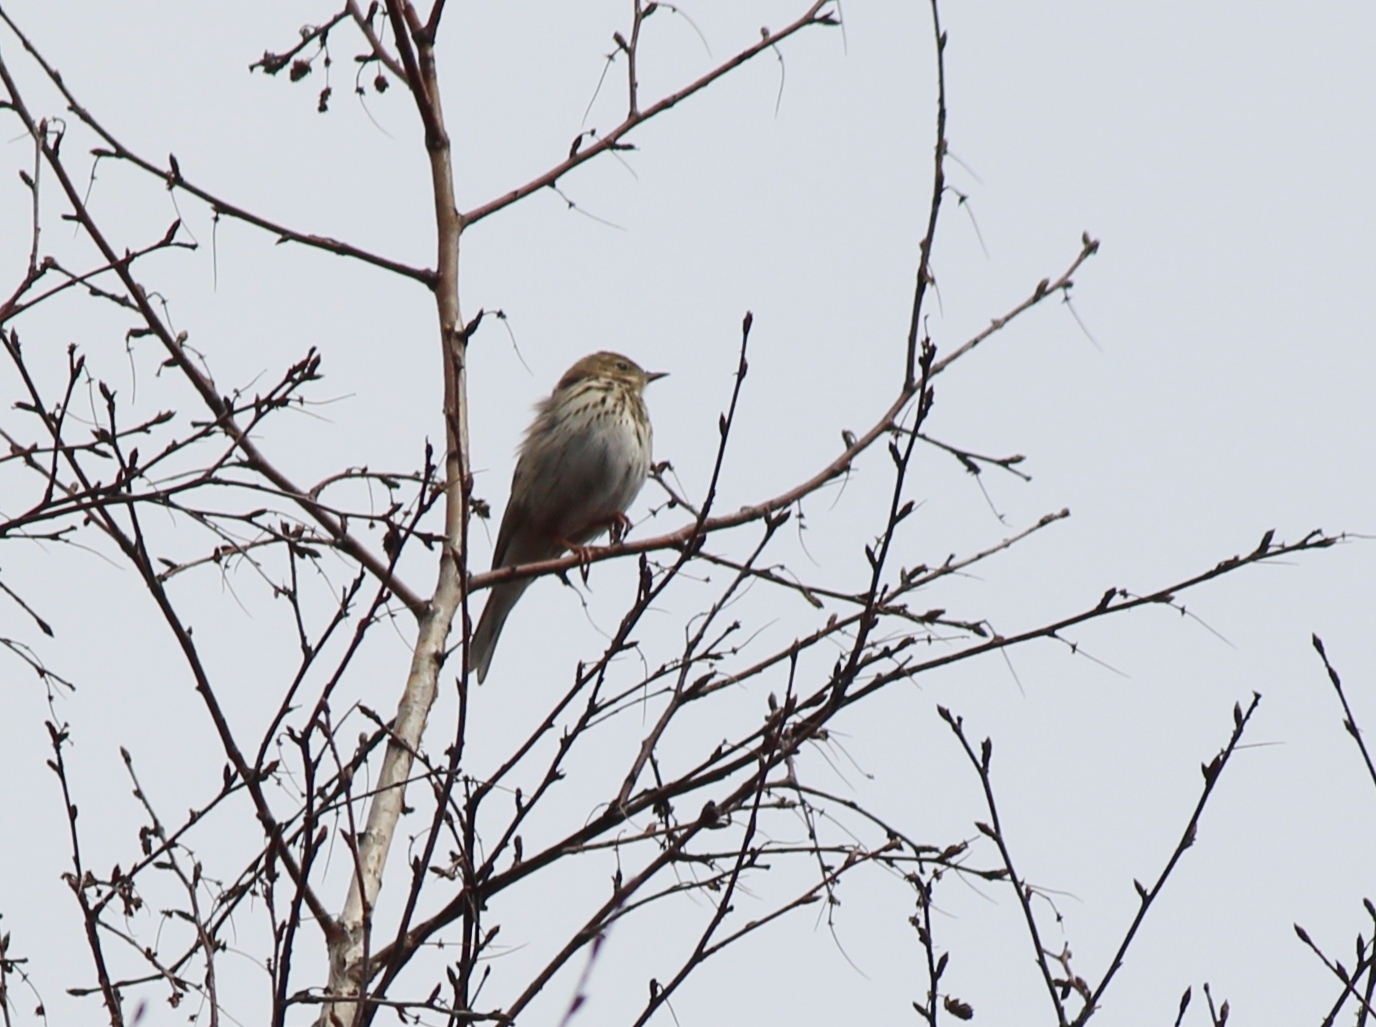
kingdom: Animalia
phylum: Chordata
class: Aves
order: Passeriformes
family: Motacillidae
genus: Anthus
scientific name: Anthus trivialis
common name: Tree pipit
